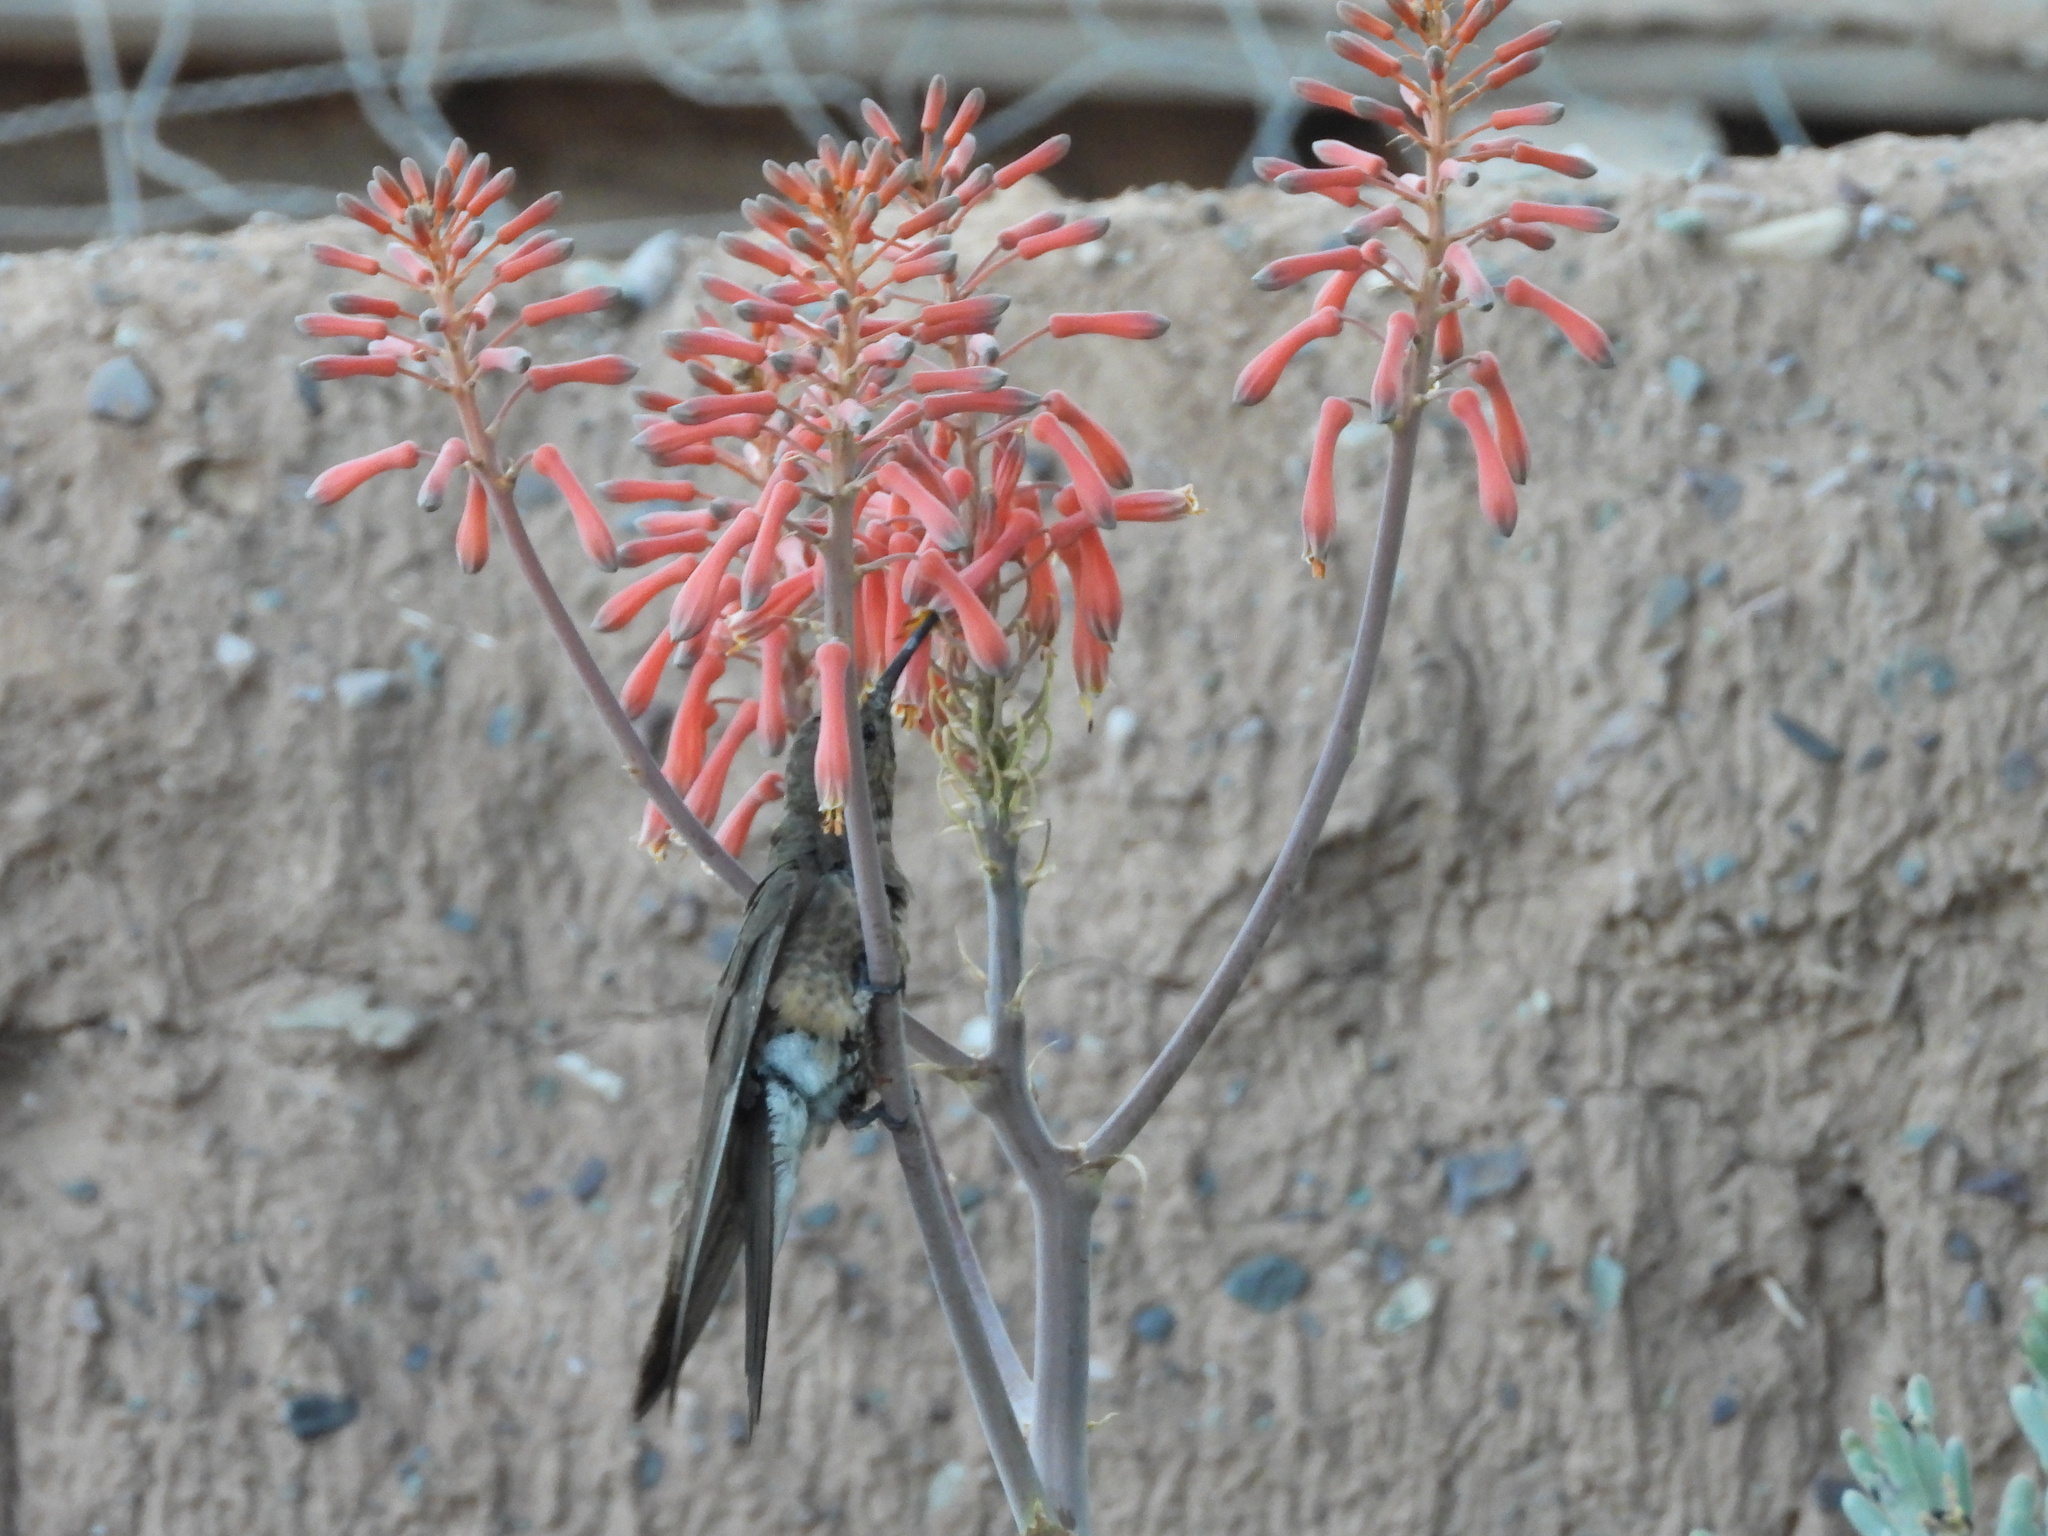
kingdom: Animalia
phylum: Chordata
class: Aves
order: Apodiformes
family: Trochilidae
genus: Patagona
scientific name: Patagona gigas
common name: Giant hummingbird
